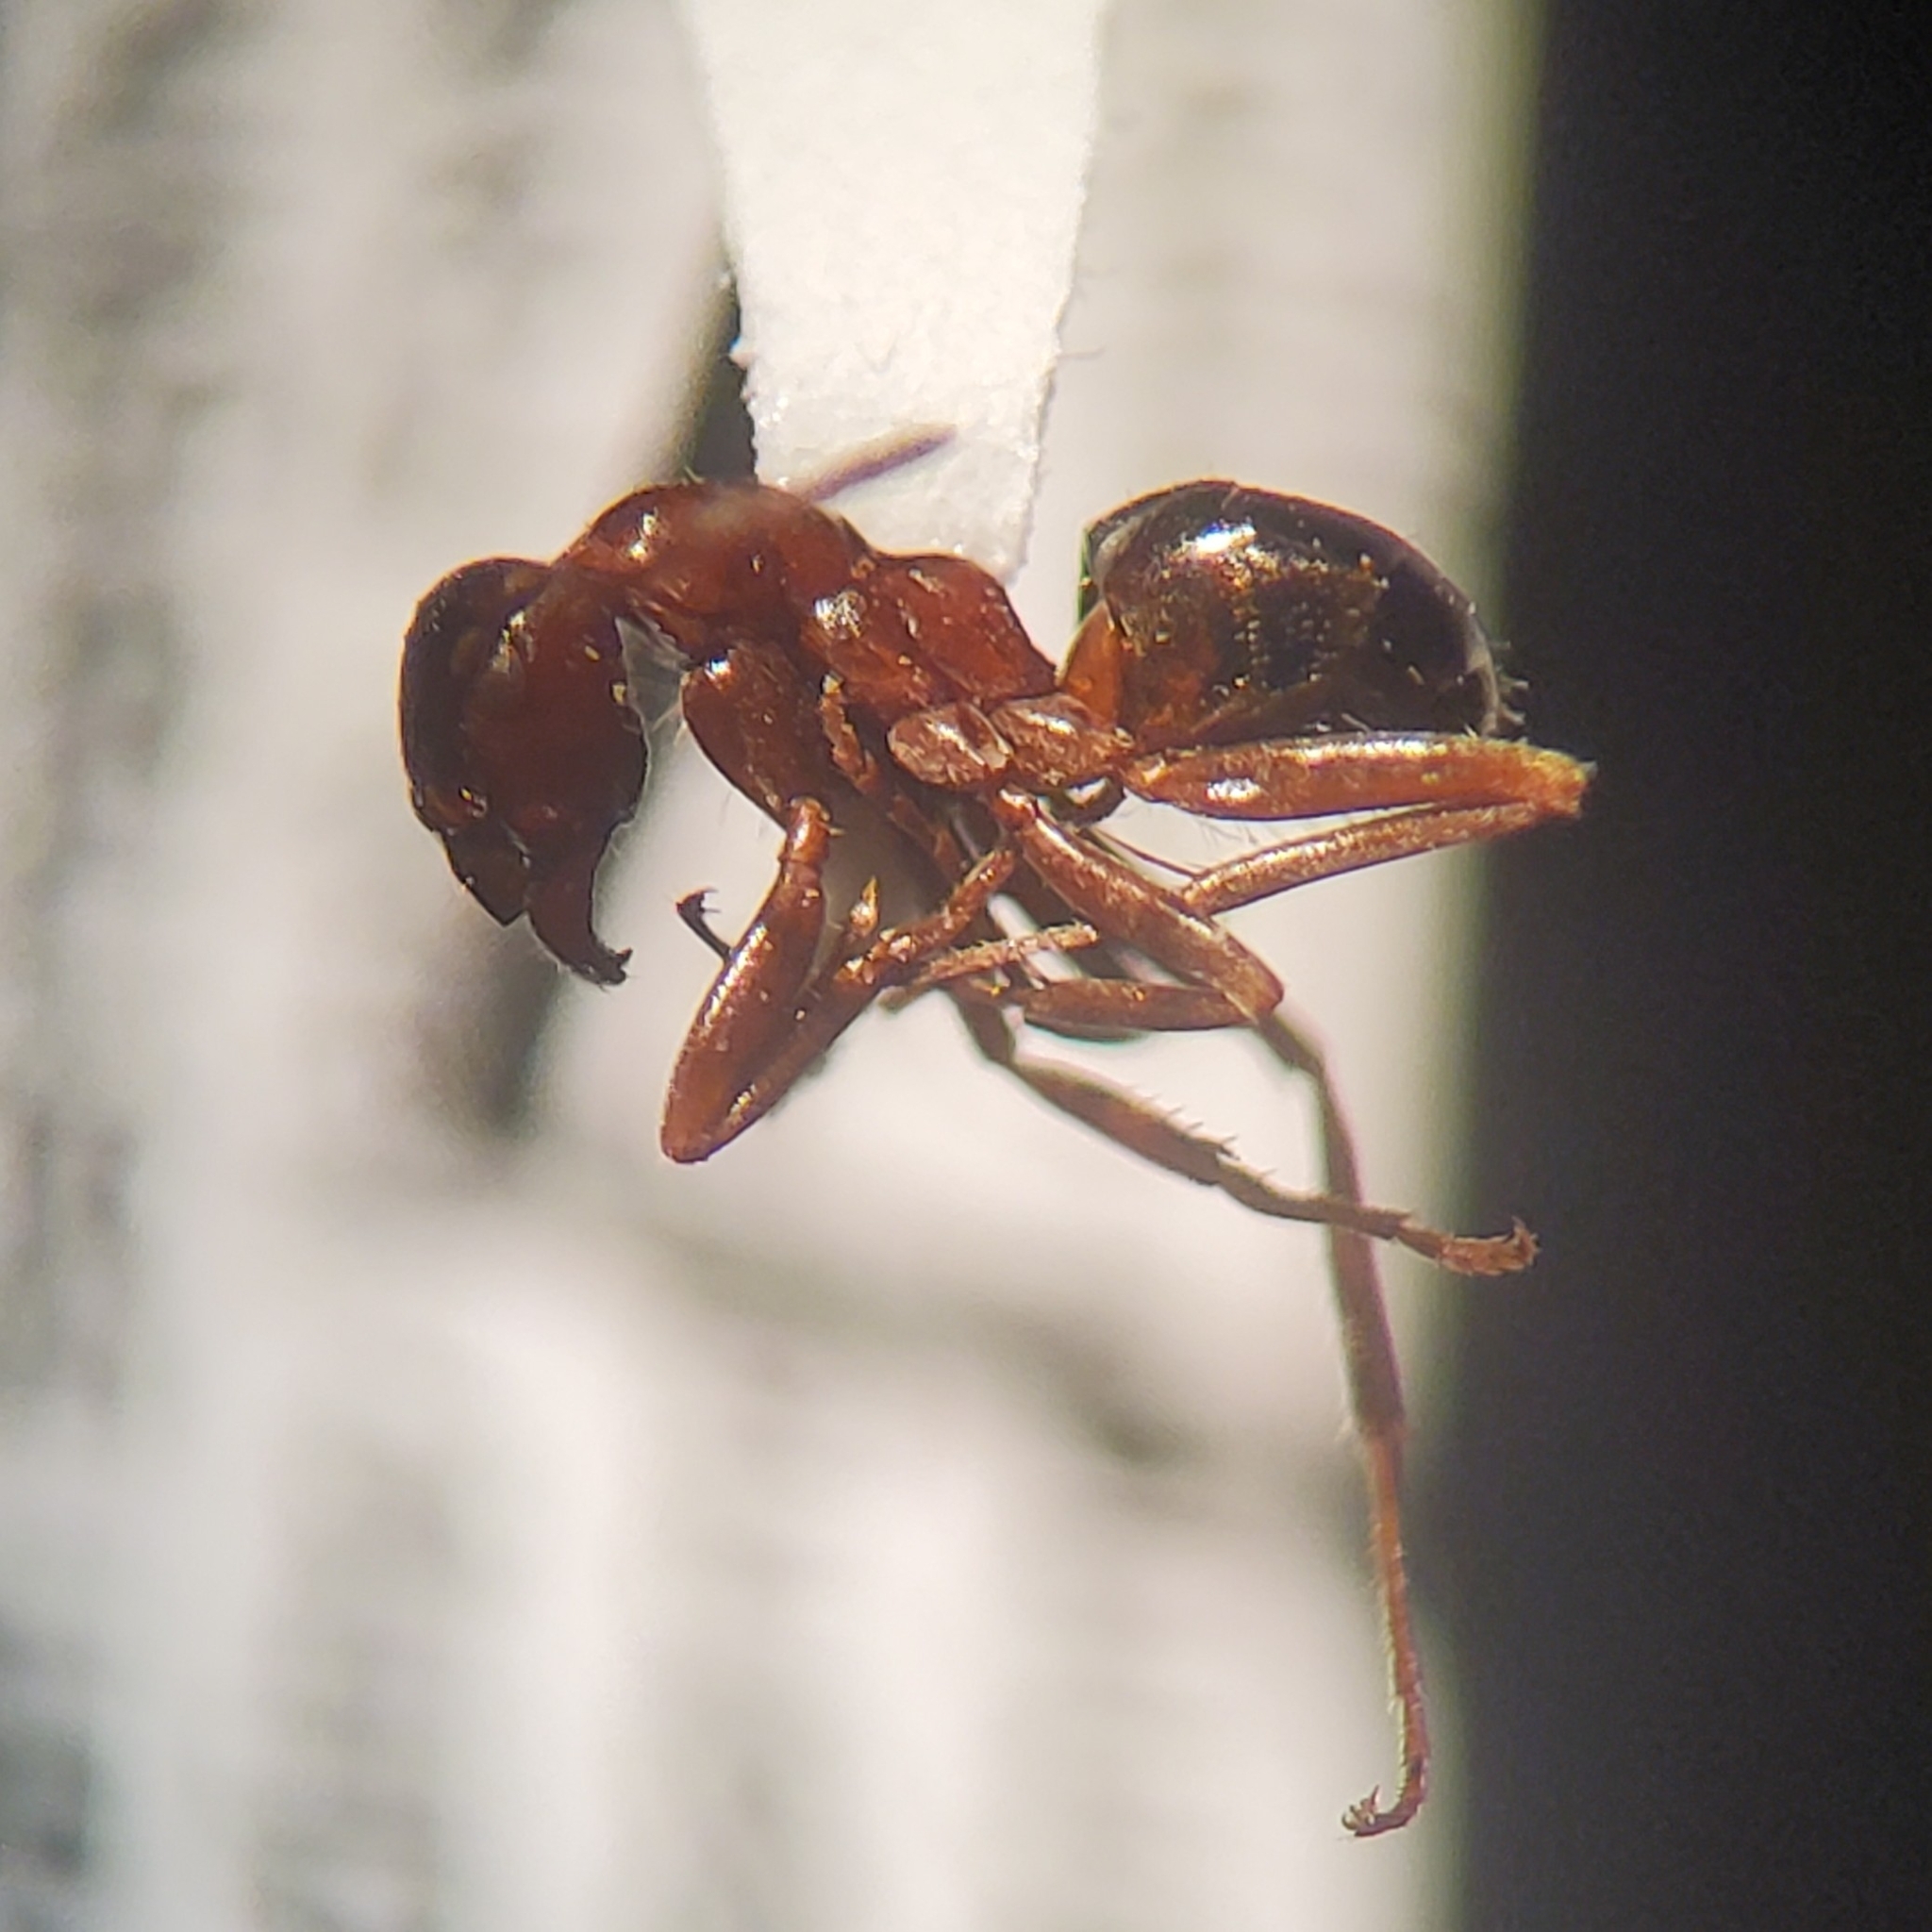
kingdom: Animalia
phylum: Arthropoda
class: Insecta
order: Hymenoptera
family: Formicidae
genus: Formica
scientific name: Formica subpolita
